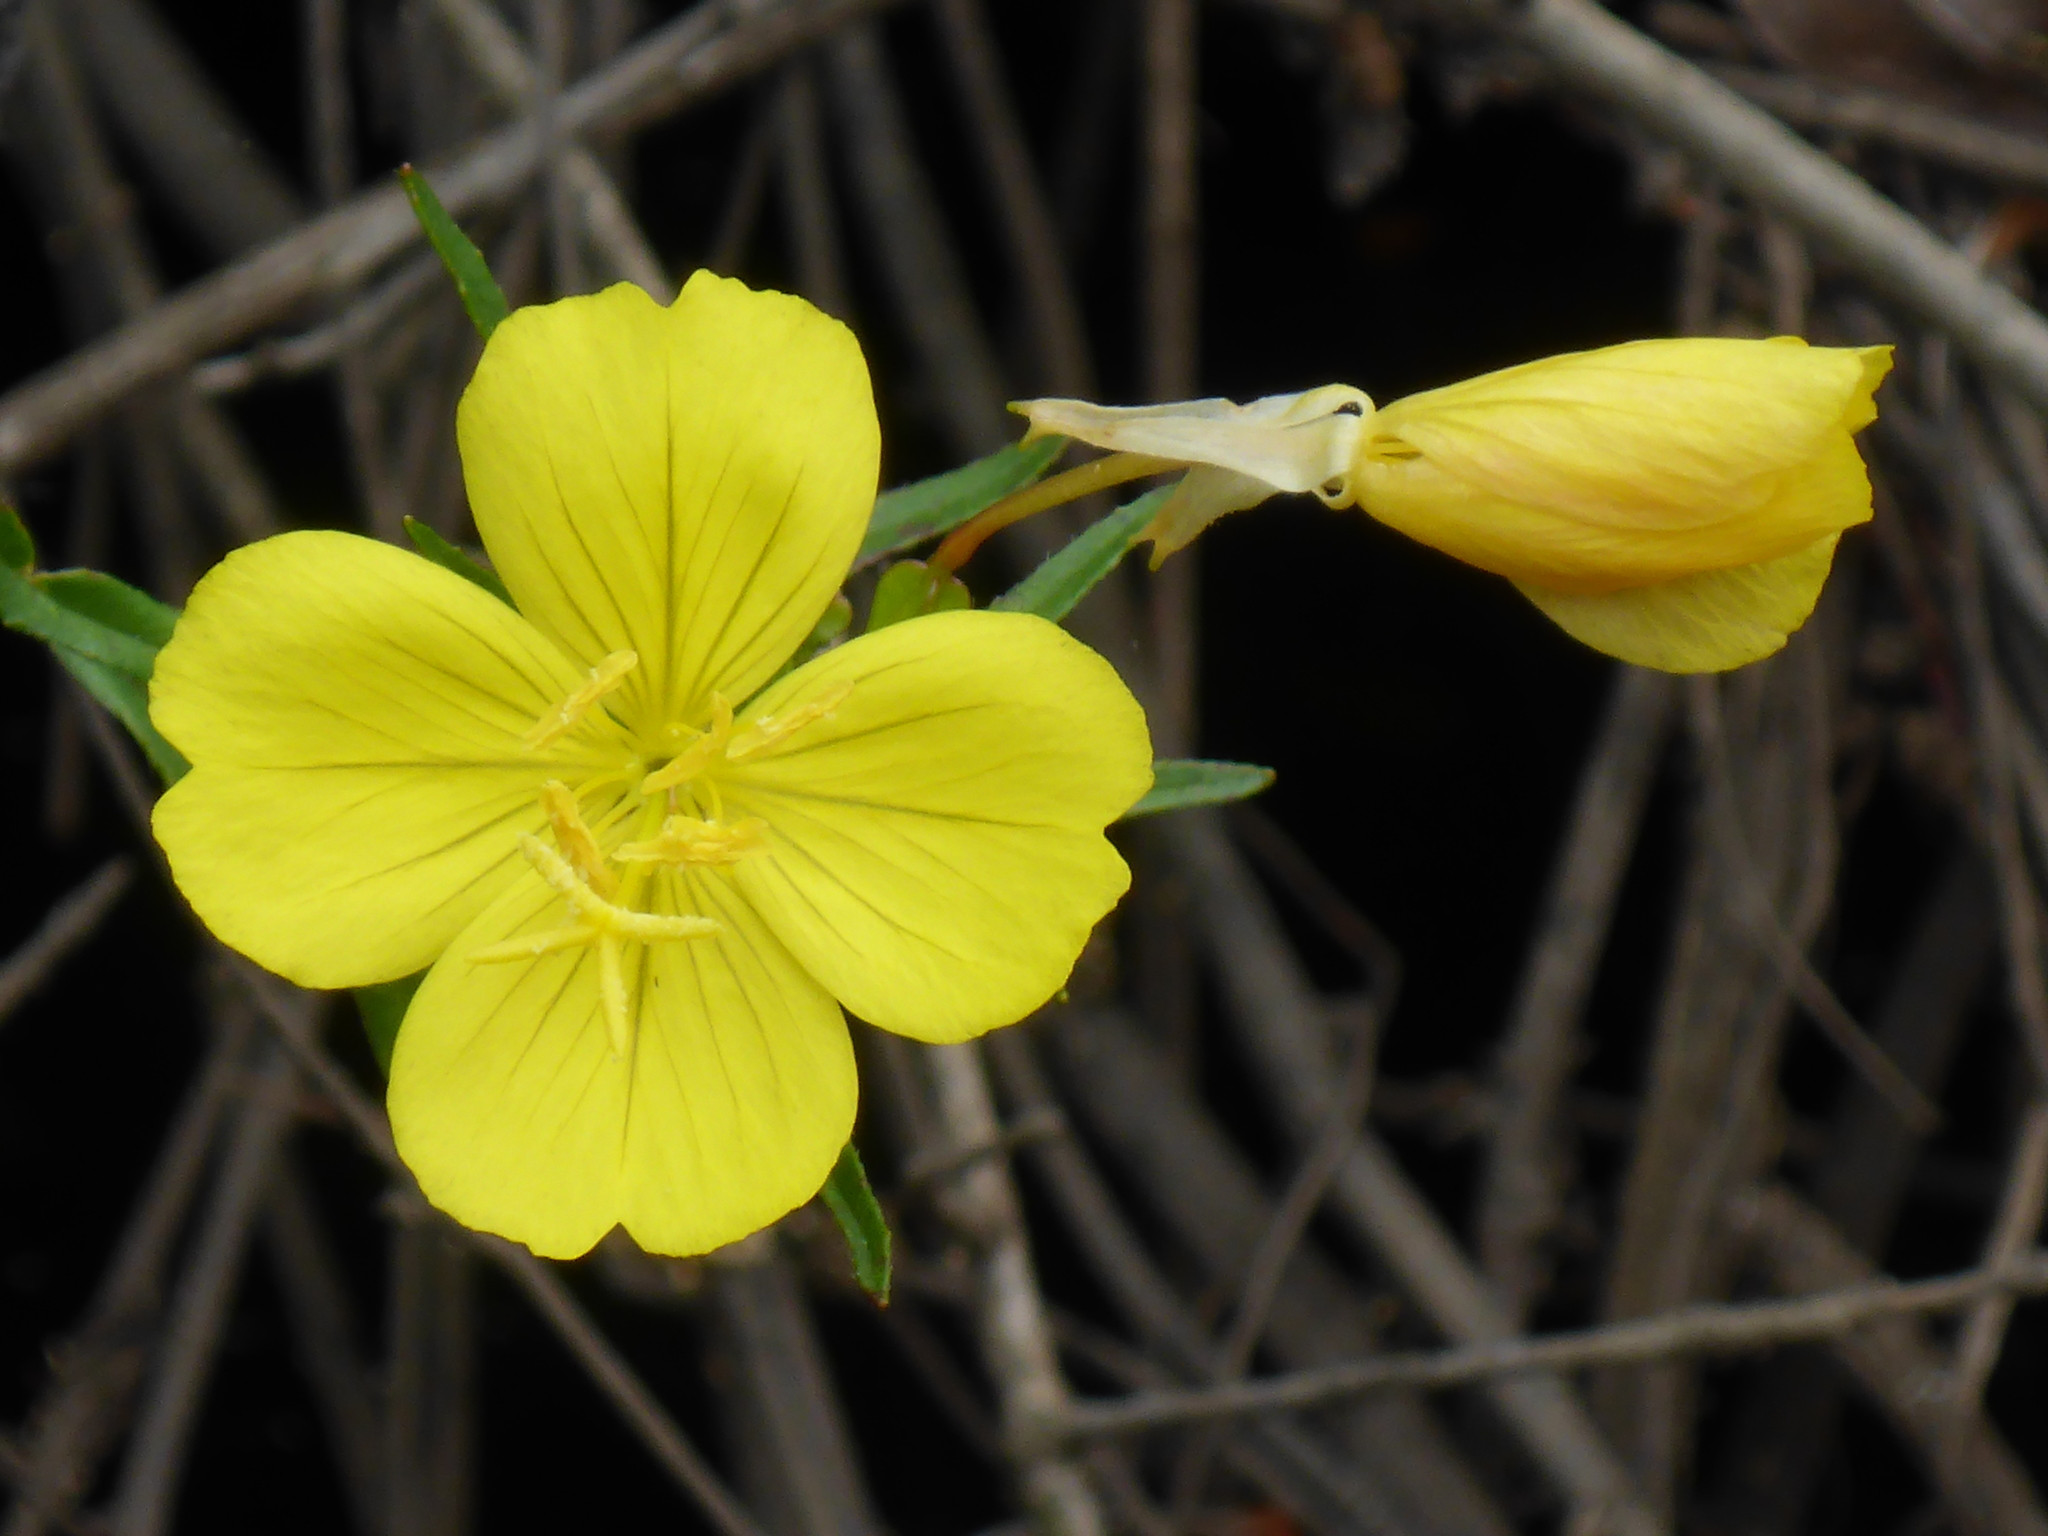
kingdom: Plantae
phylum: Tracheophyta
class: Magnoliopsida
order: Myrtales
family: Onagraceae
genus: Oenothera
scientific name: Oenothera fruticosa
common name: Southern sundrops
